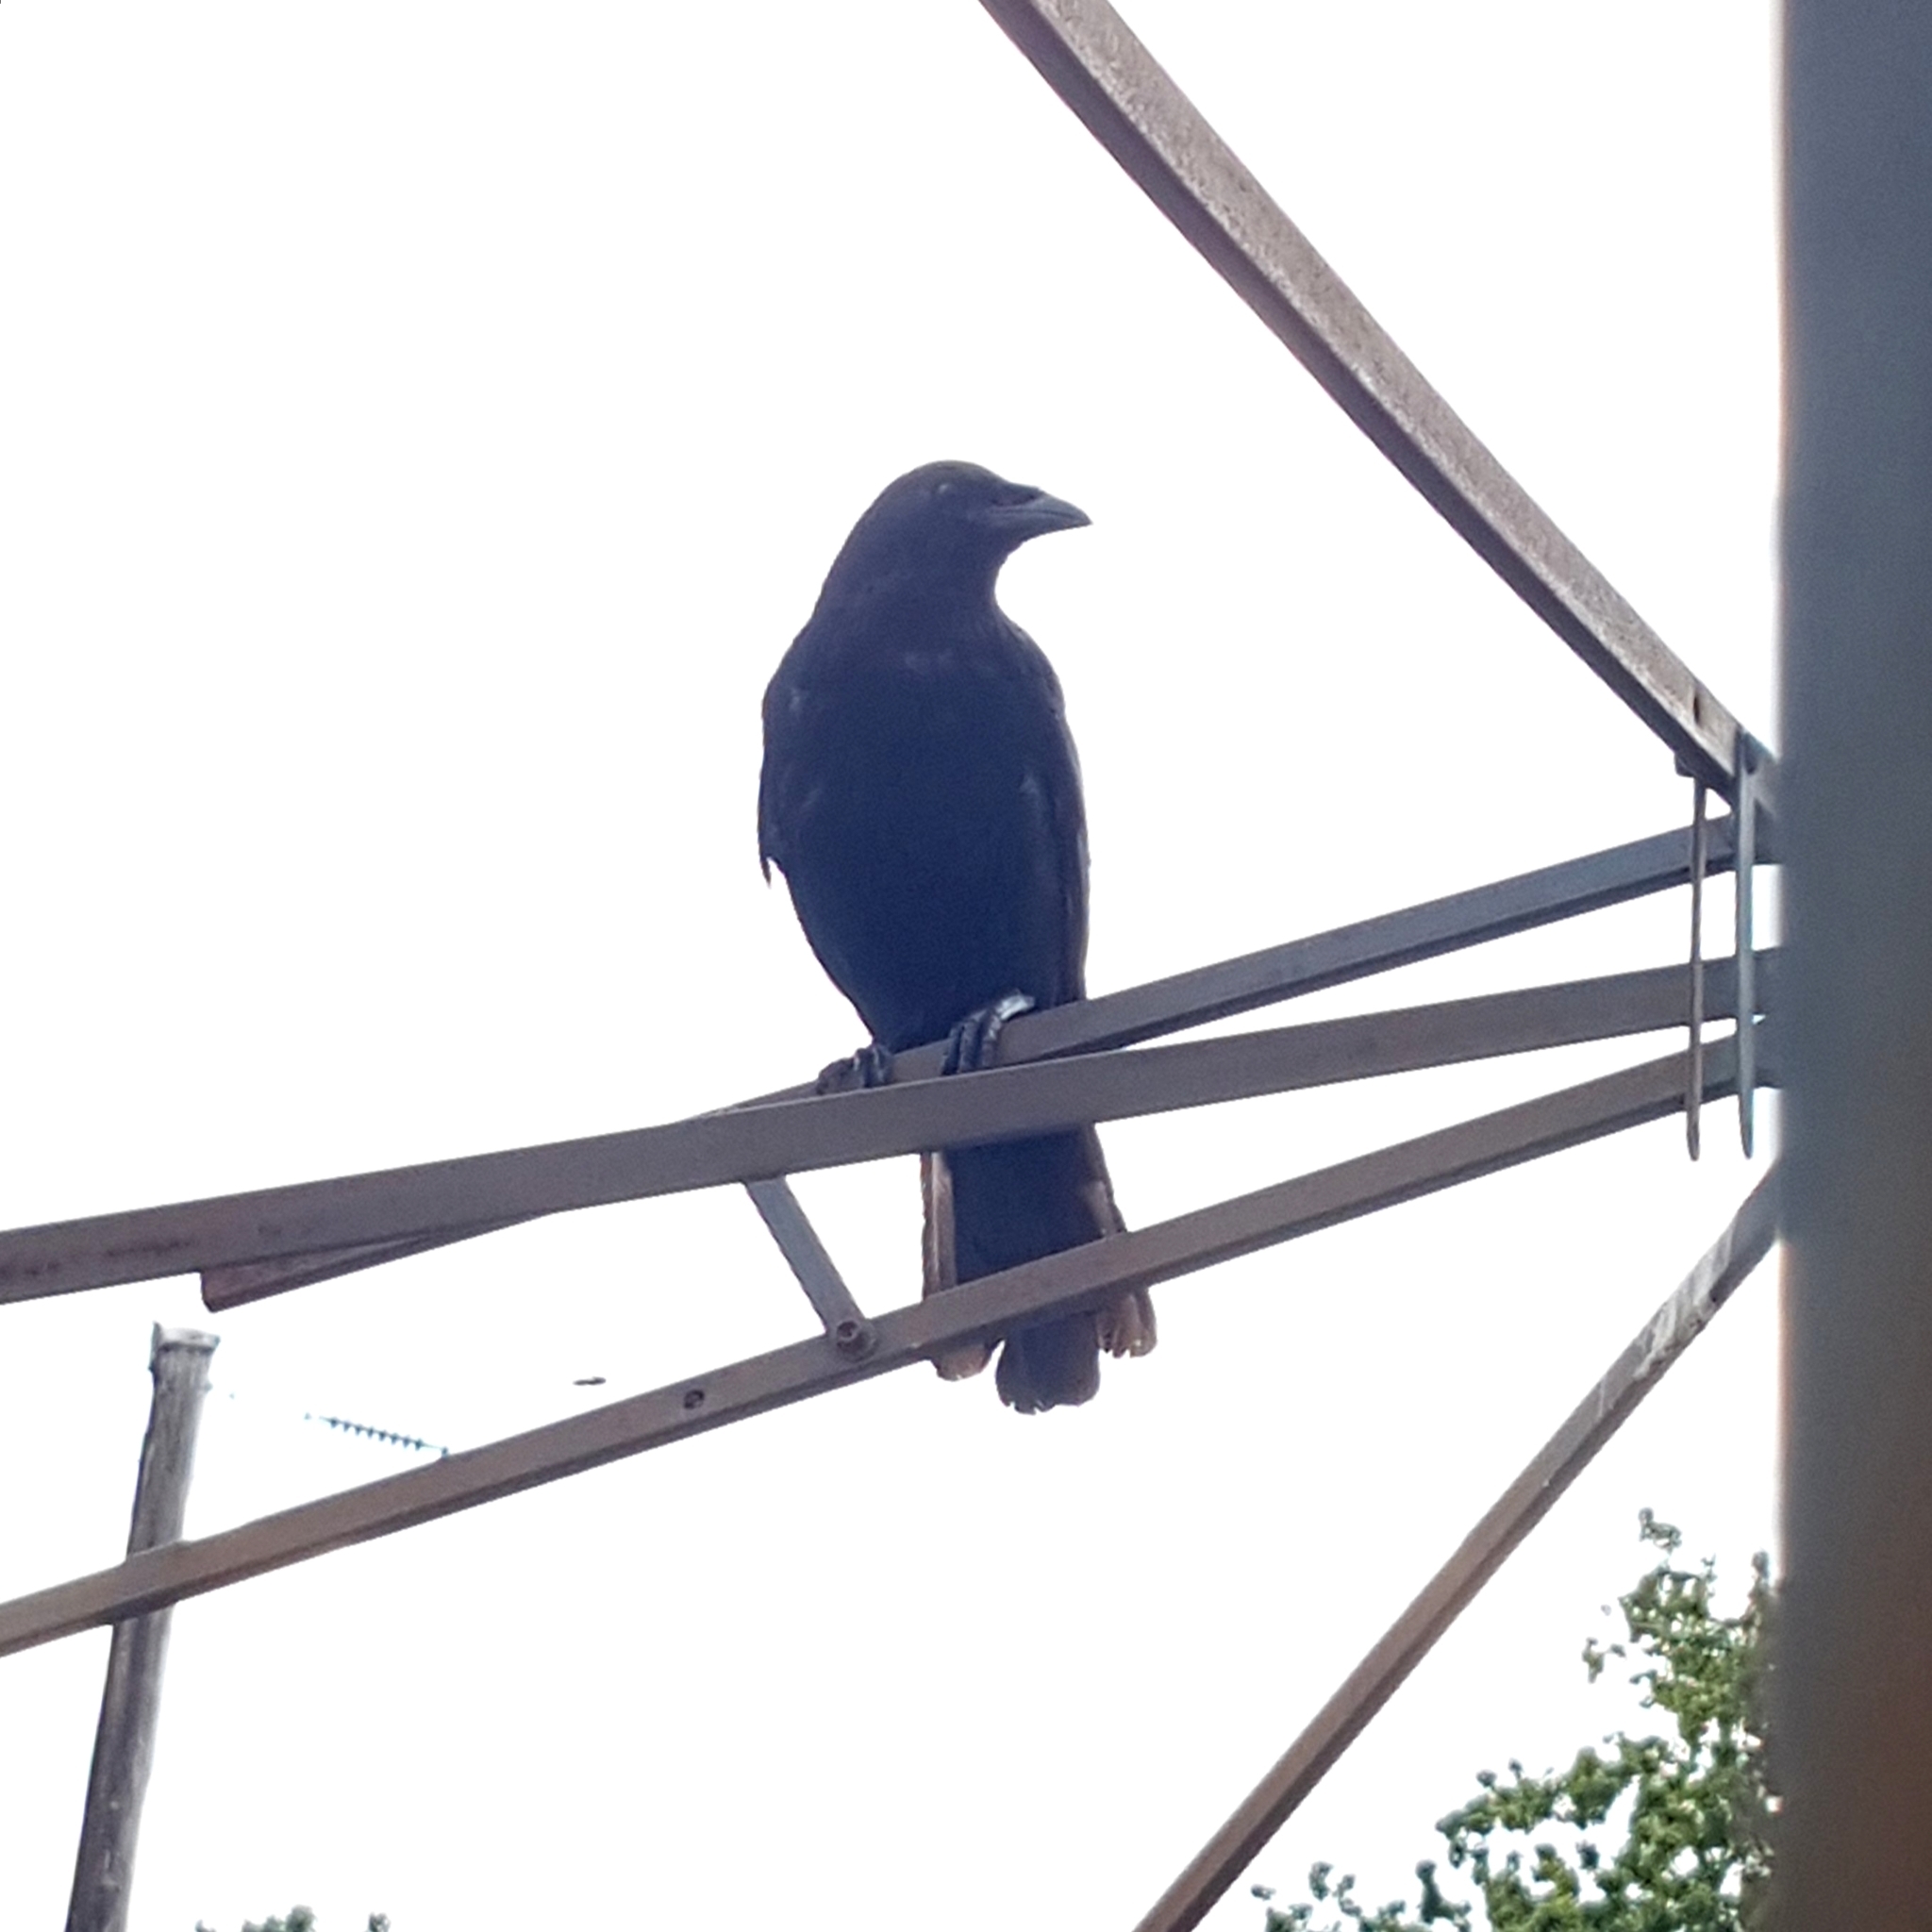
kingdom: Animalia
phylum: Chordata
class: Aves
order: Passeriformes
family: Corvidae
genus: Corvus
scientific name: Corvus brachyrhynchos
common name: American crow
